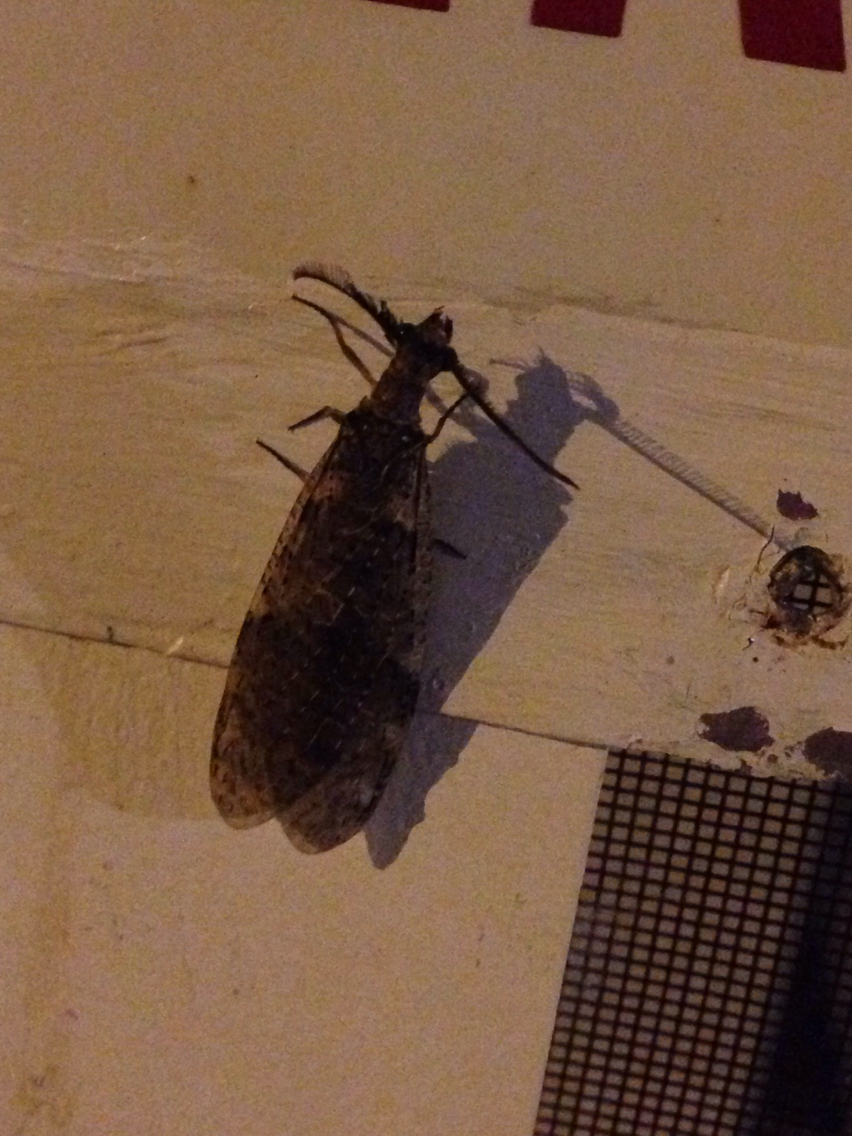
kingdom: Animalia
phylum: Arthropoda
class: Insecta
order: Megaloptera
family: Corydalidae
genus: Chauliodes
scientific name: Chauliodes rastricornis
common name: Spring fishfly
